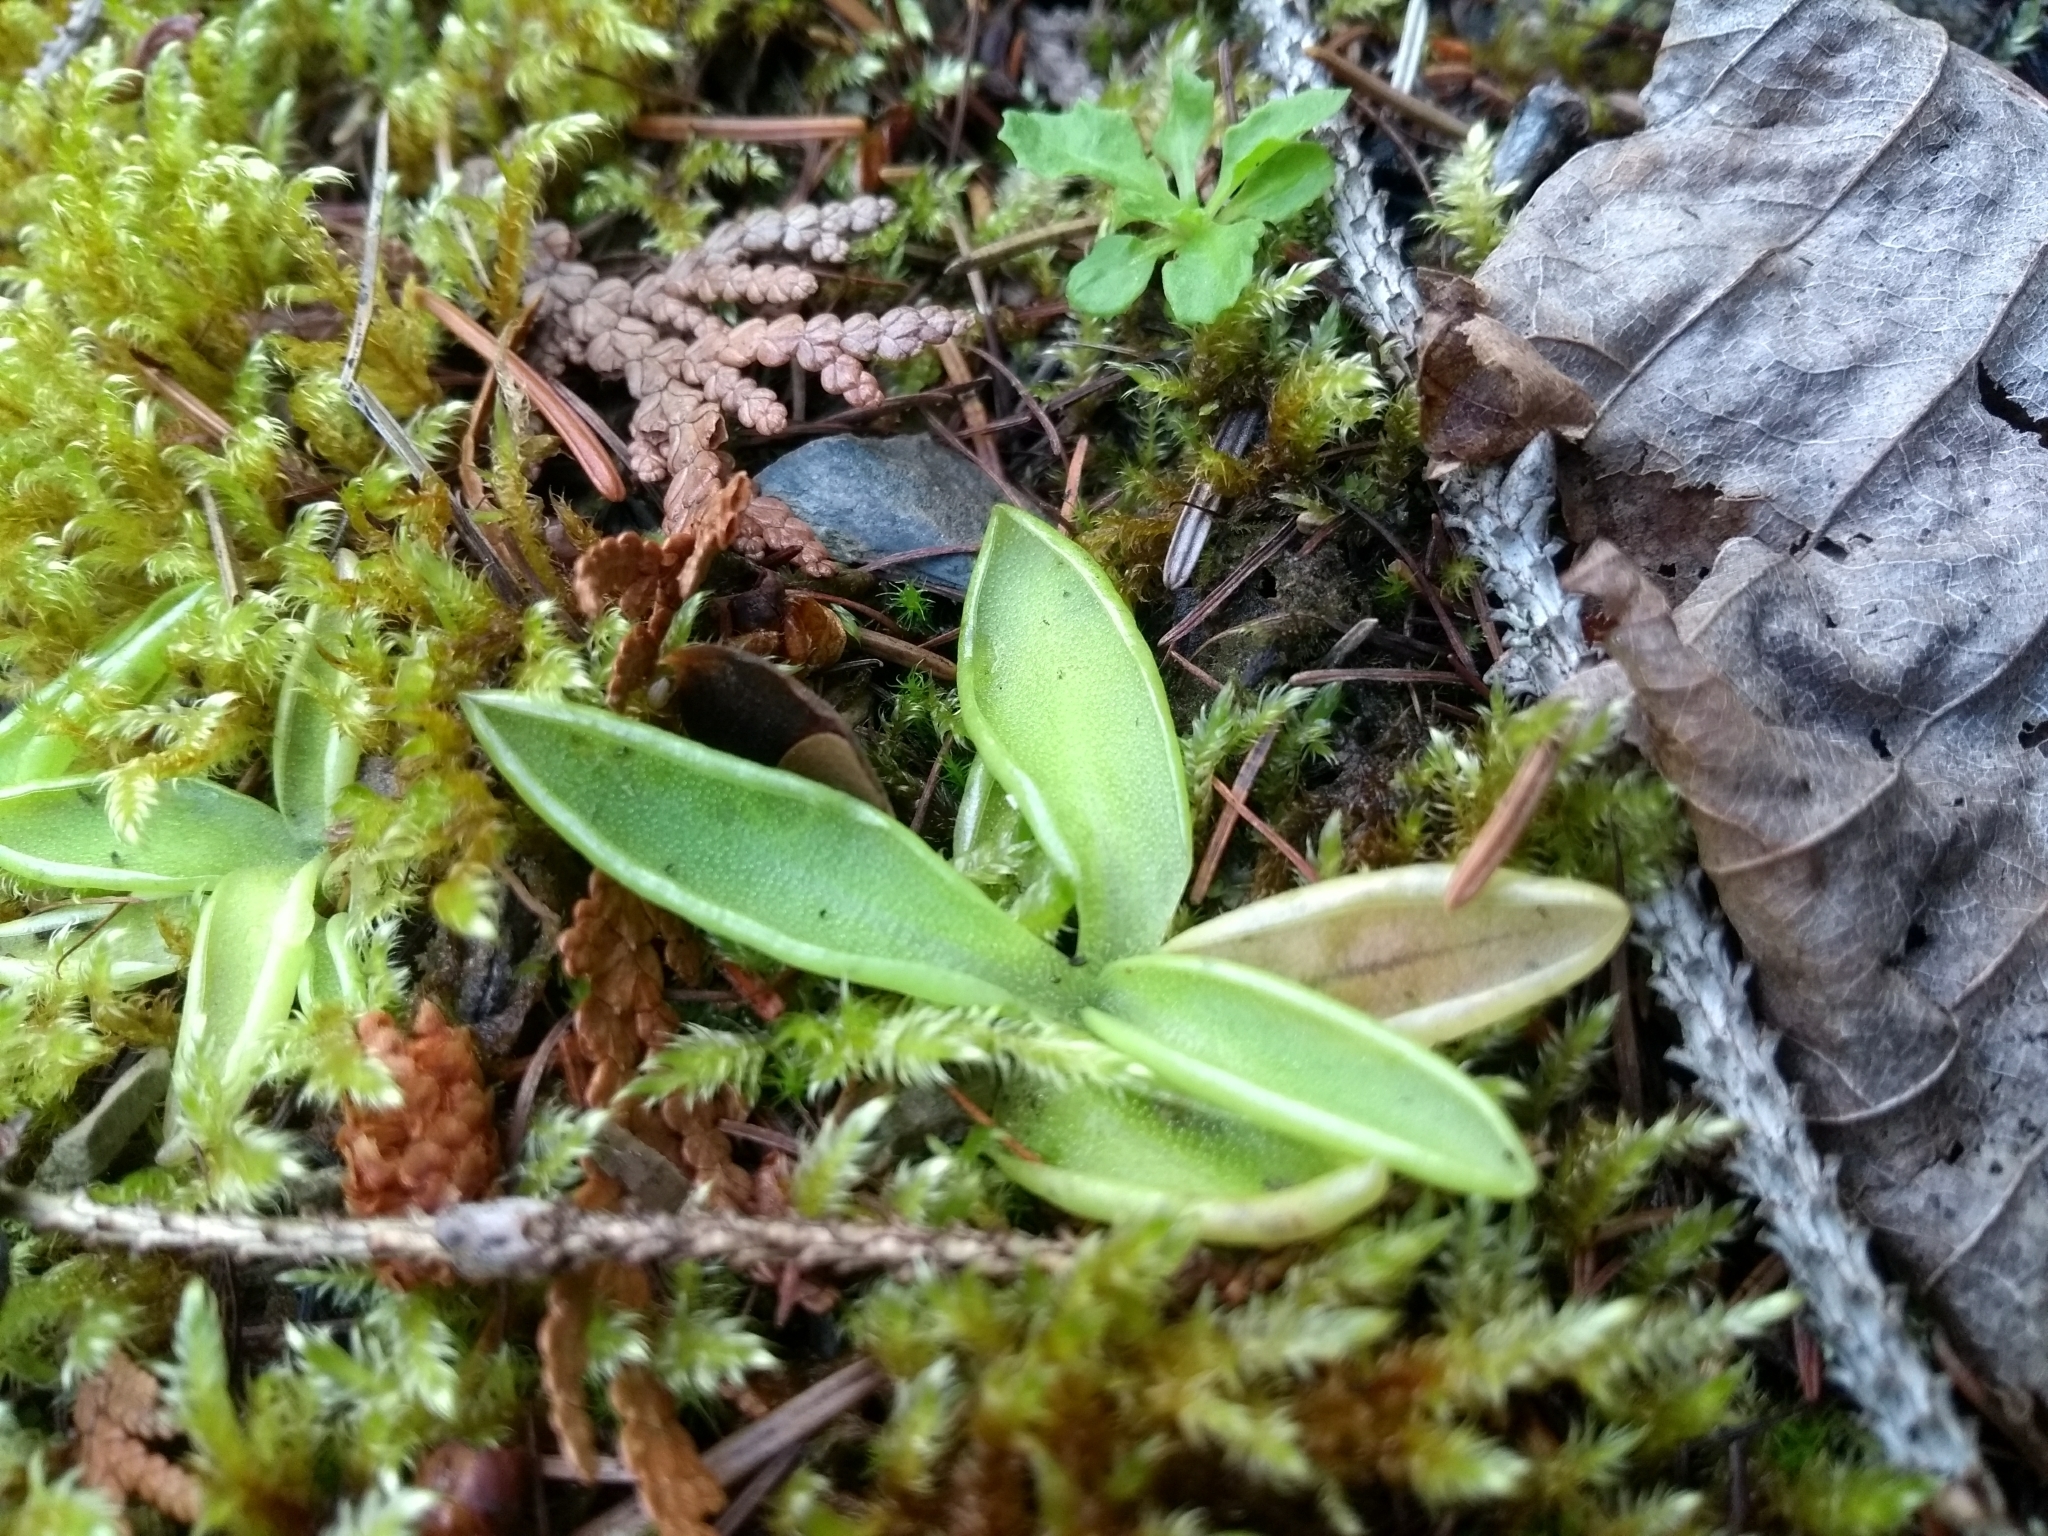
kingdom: Plantae
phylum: Tracheophyta
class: Magnoliopsida
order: Lamiales
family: Lentibulariaceae
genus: Pinguicula
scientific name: Pinguicula vulgaris
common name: Common butterwort
